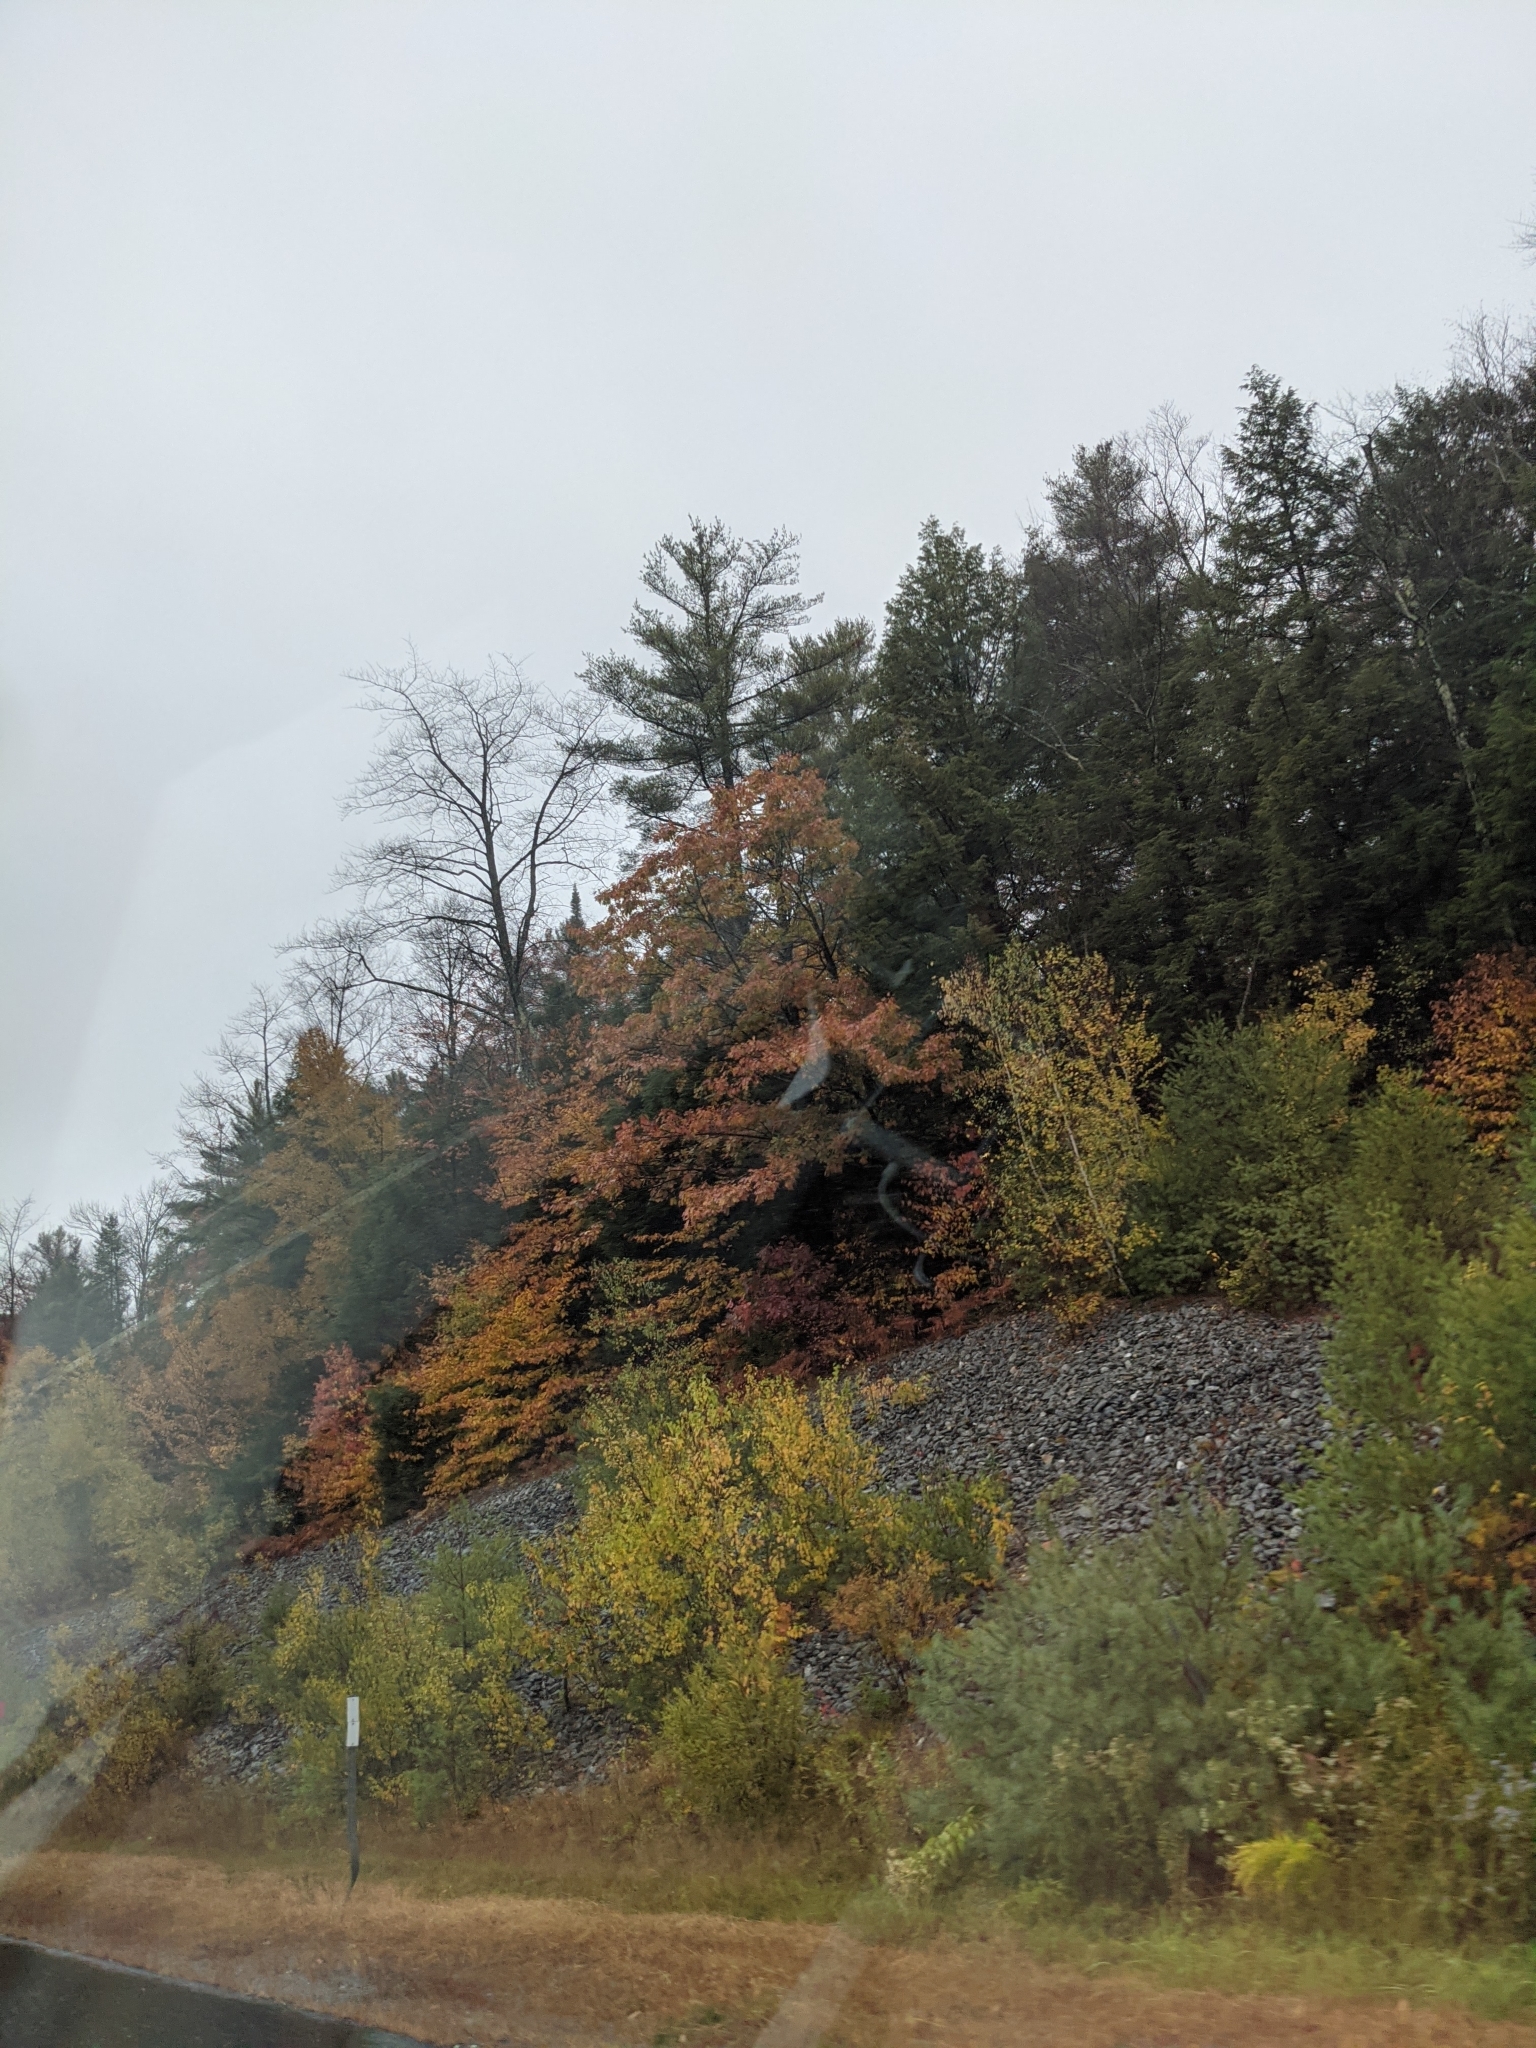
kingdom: Plantae
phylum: Tracheophyta
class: Pinopsida
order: Pinales
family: Pinaceae
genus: Pinus
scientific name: Pinus strobus
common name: Weymouth pine
